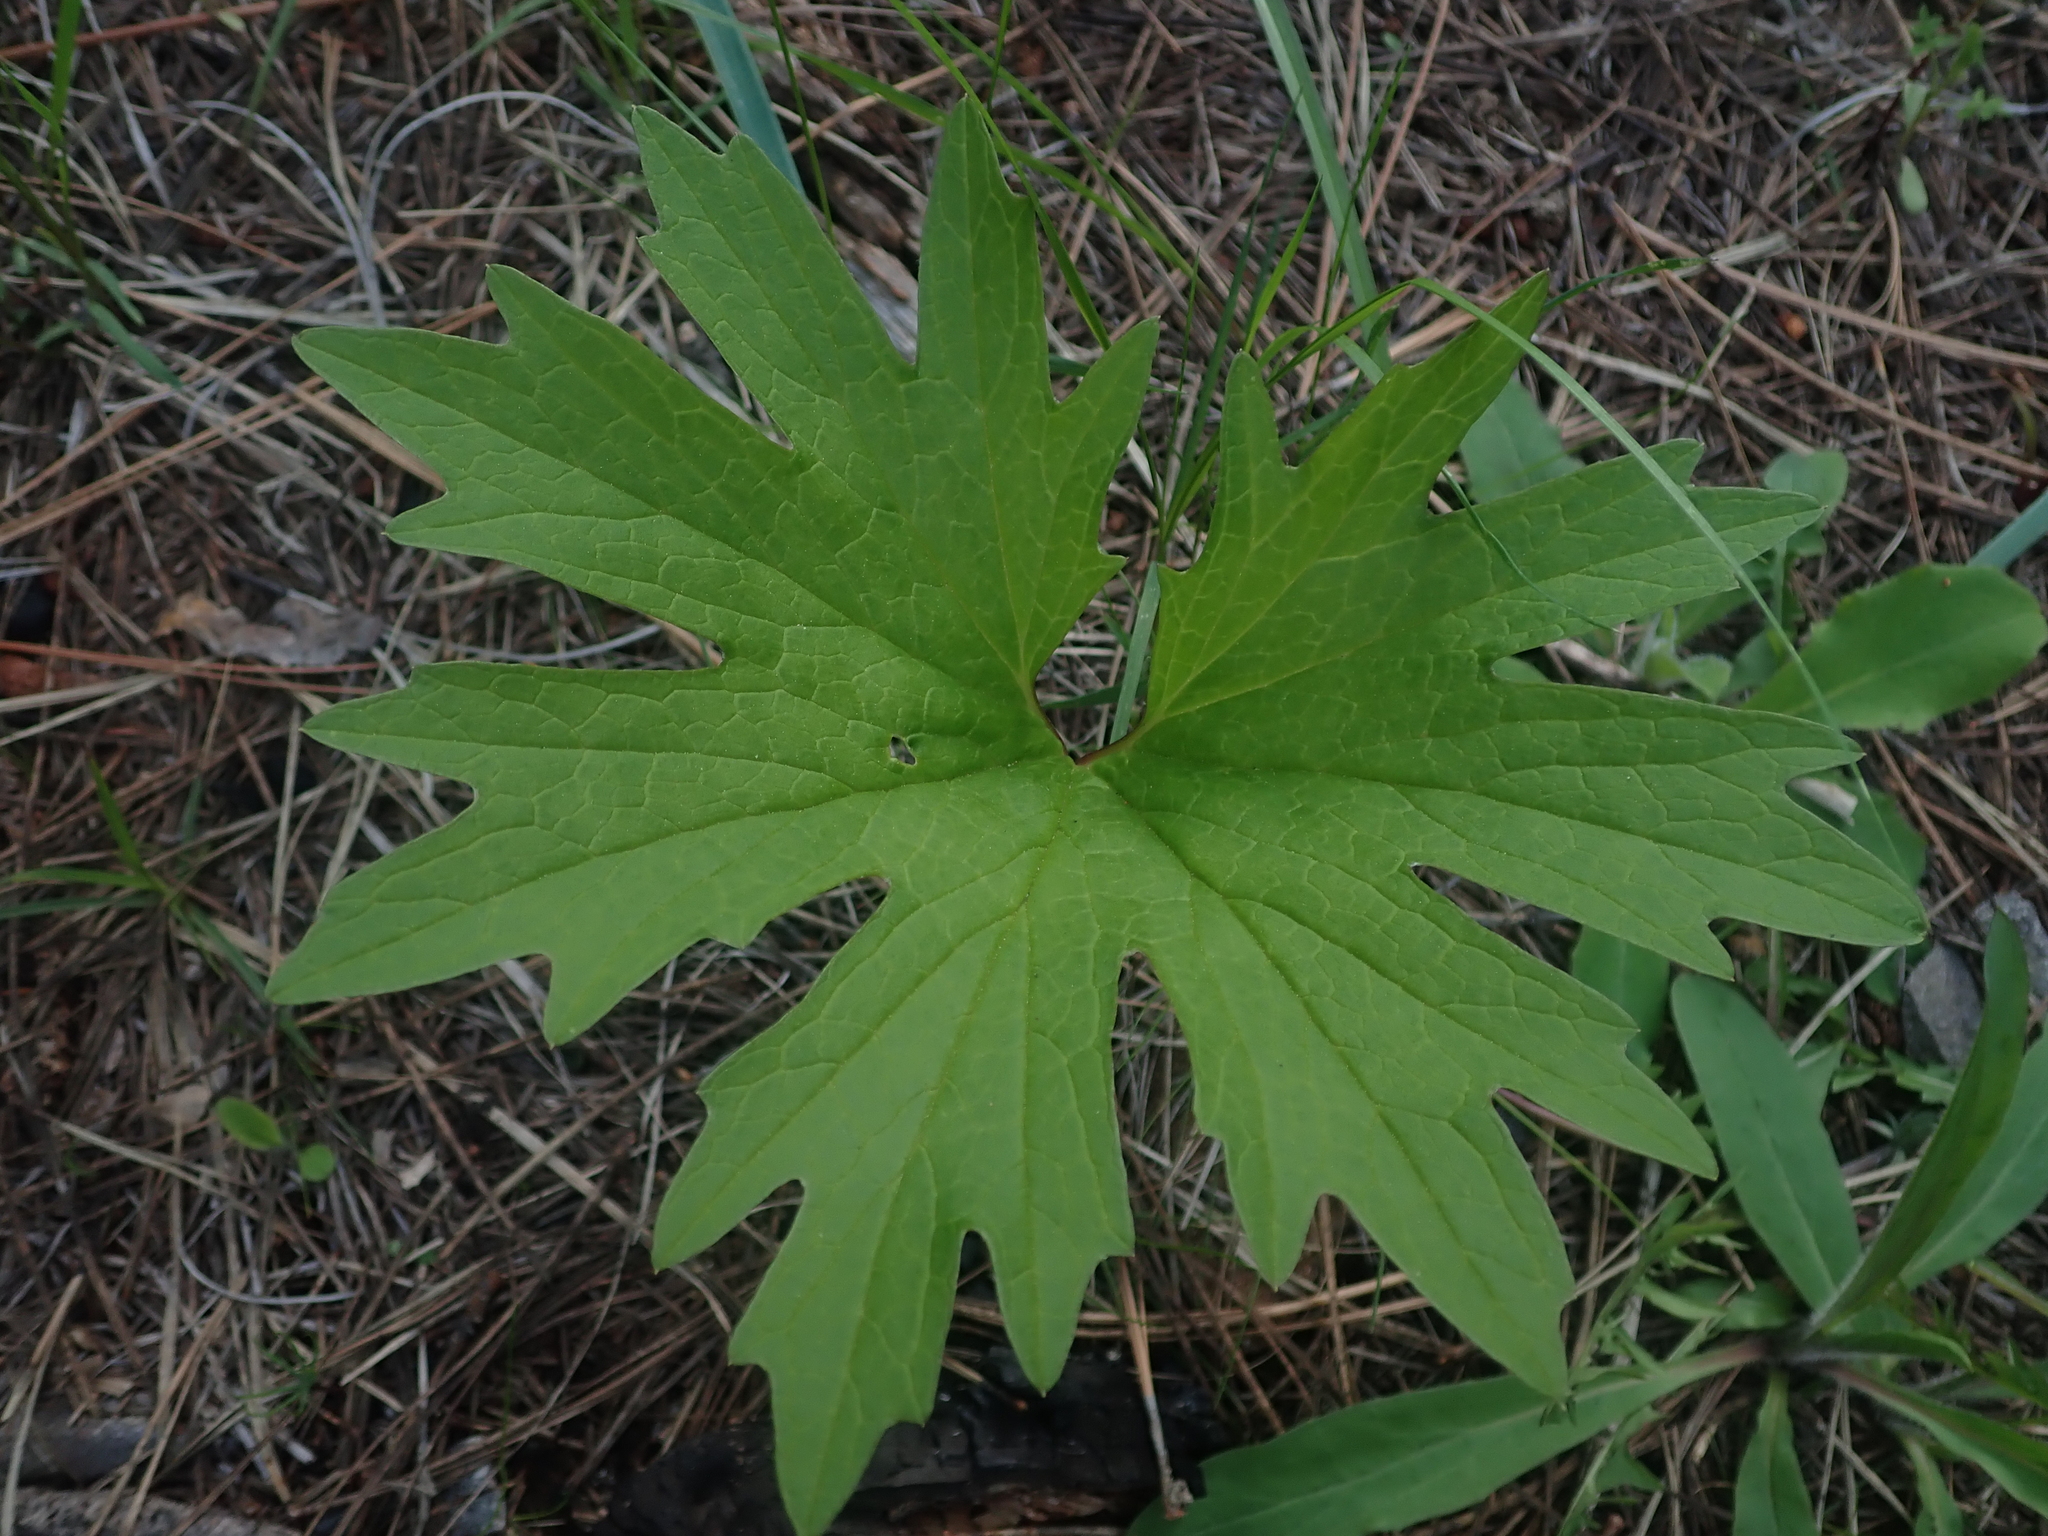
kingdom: Plantae
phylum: Tracheophyta
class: Magnoliopsida
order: Asterales
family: Asteraceae
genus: Cacaliopsis
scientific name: Cacaliopsis nardosmia
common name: Silvercrown
